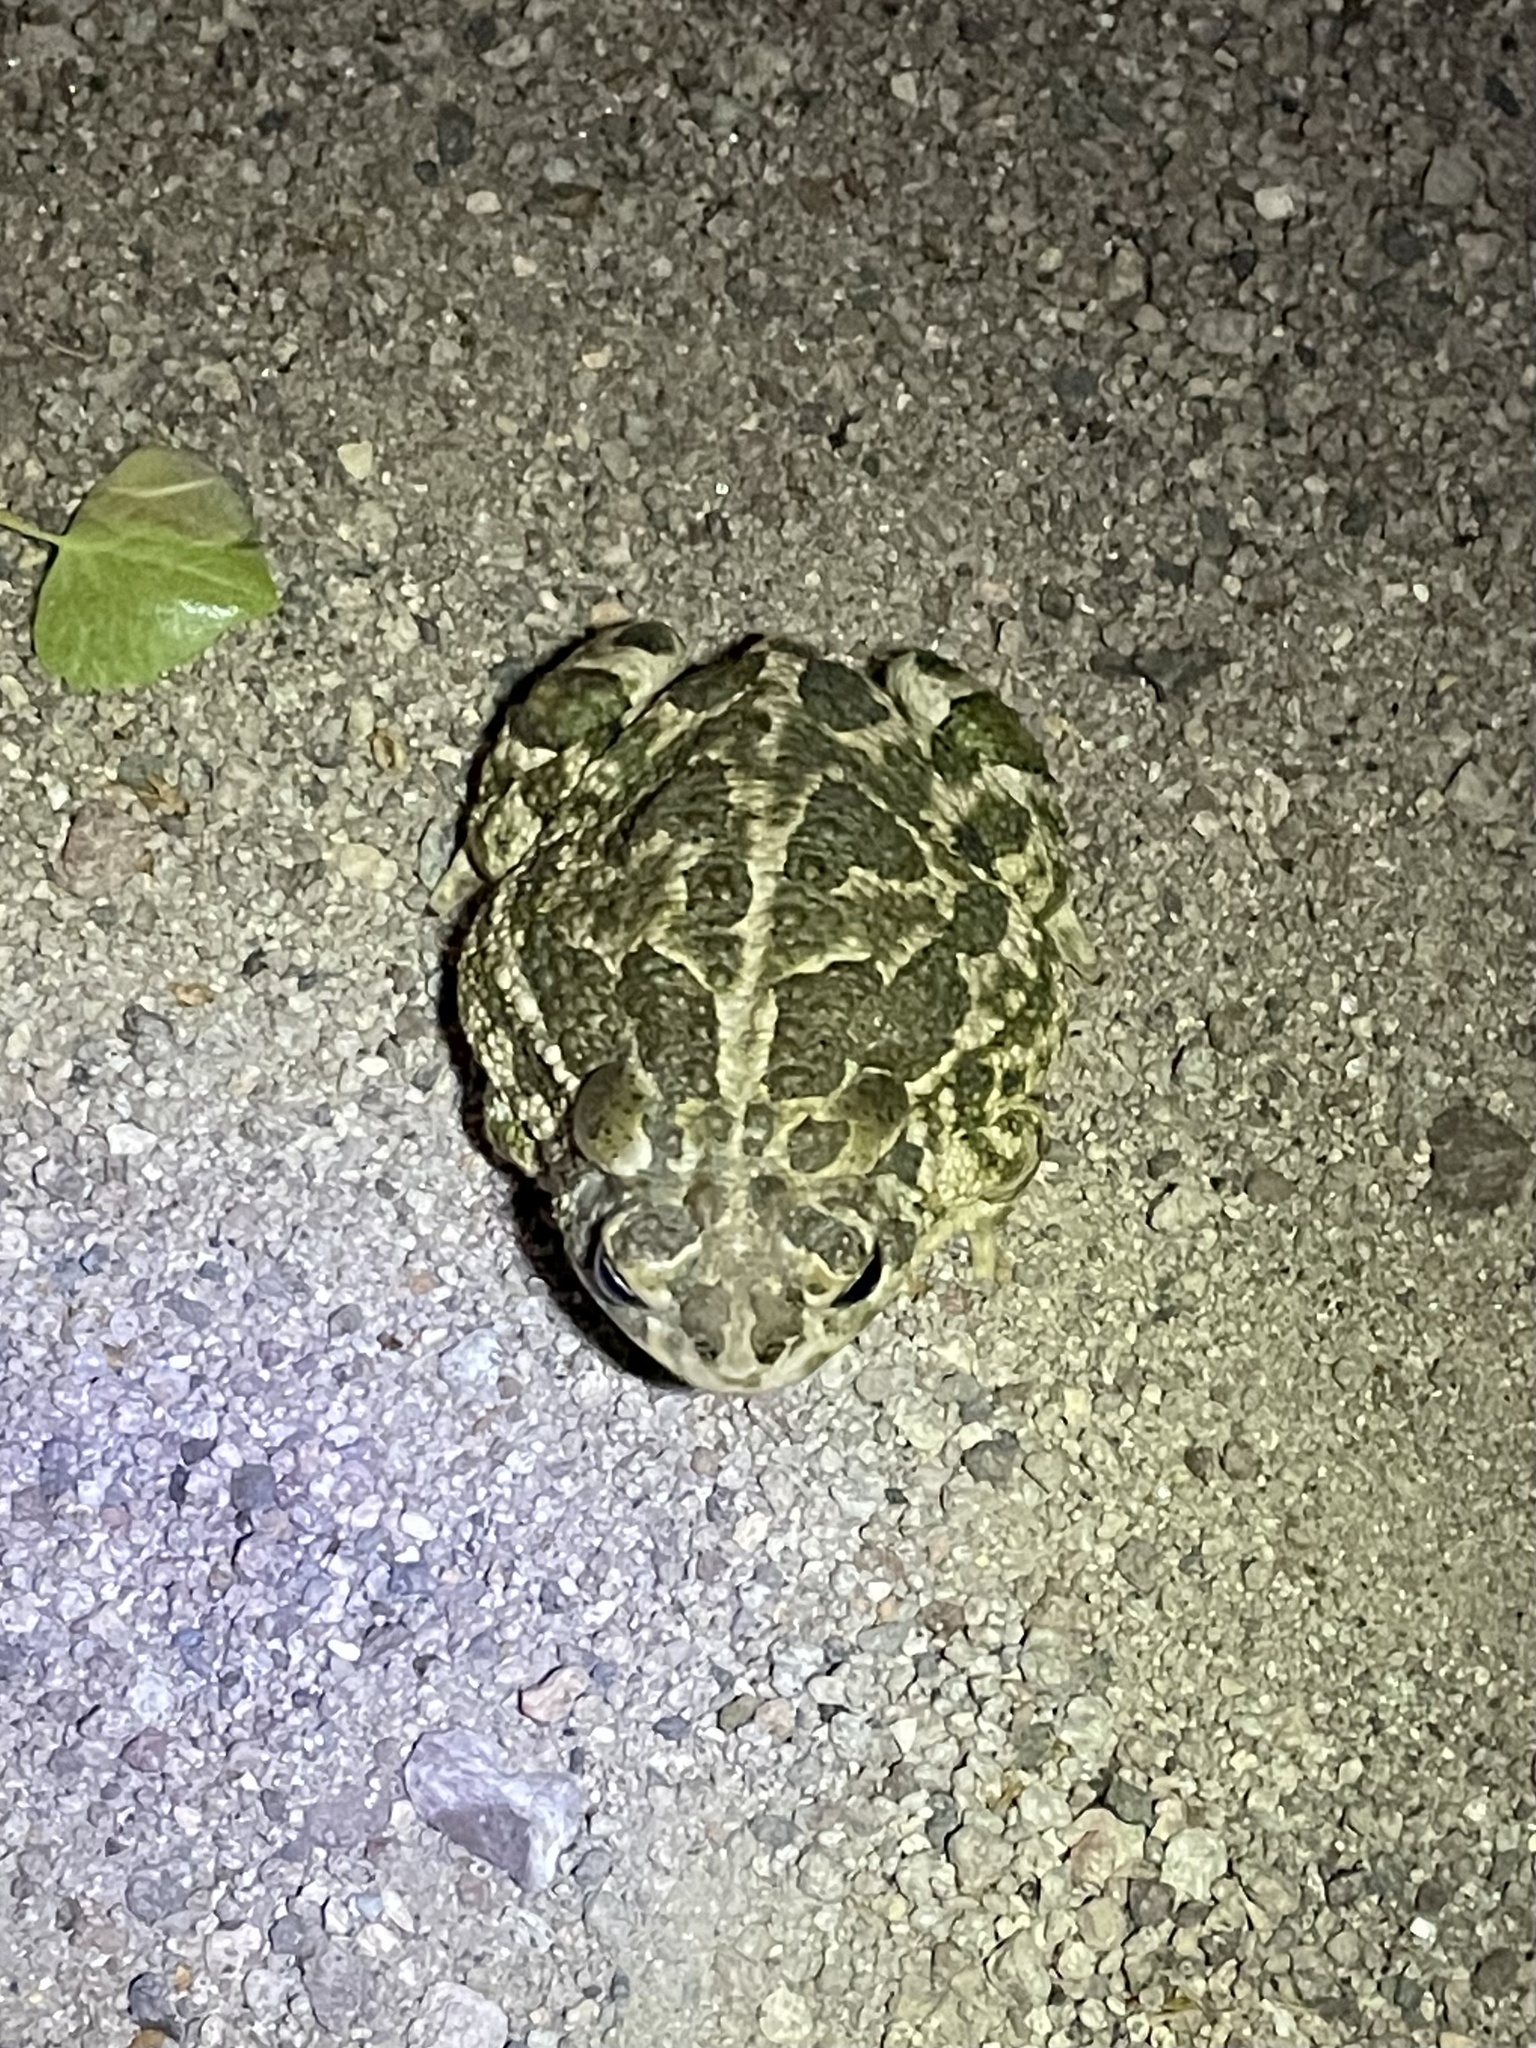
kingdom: Animalia
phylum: Chordata
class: Amphibia
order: Anura
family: Bufonidae
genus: Anaxyrus
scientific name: Anaxyrus cognatus
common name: Great plains toad
